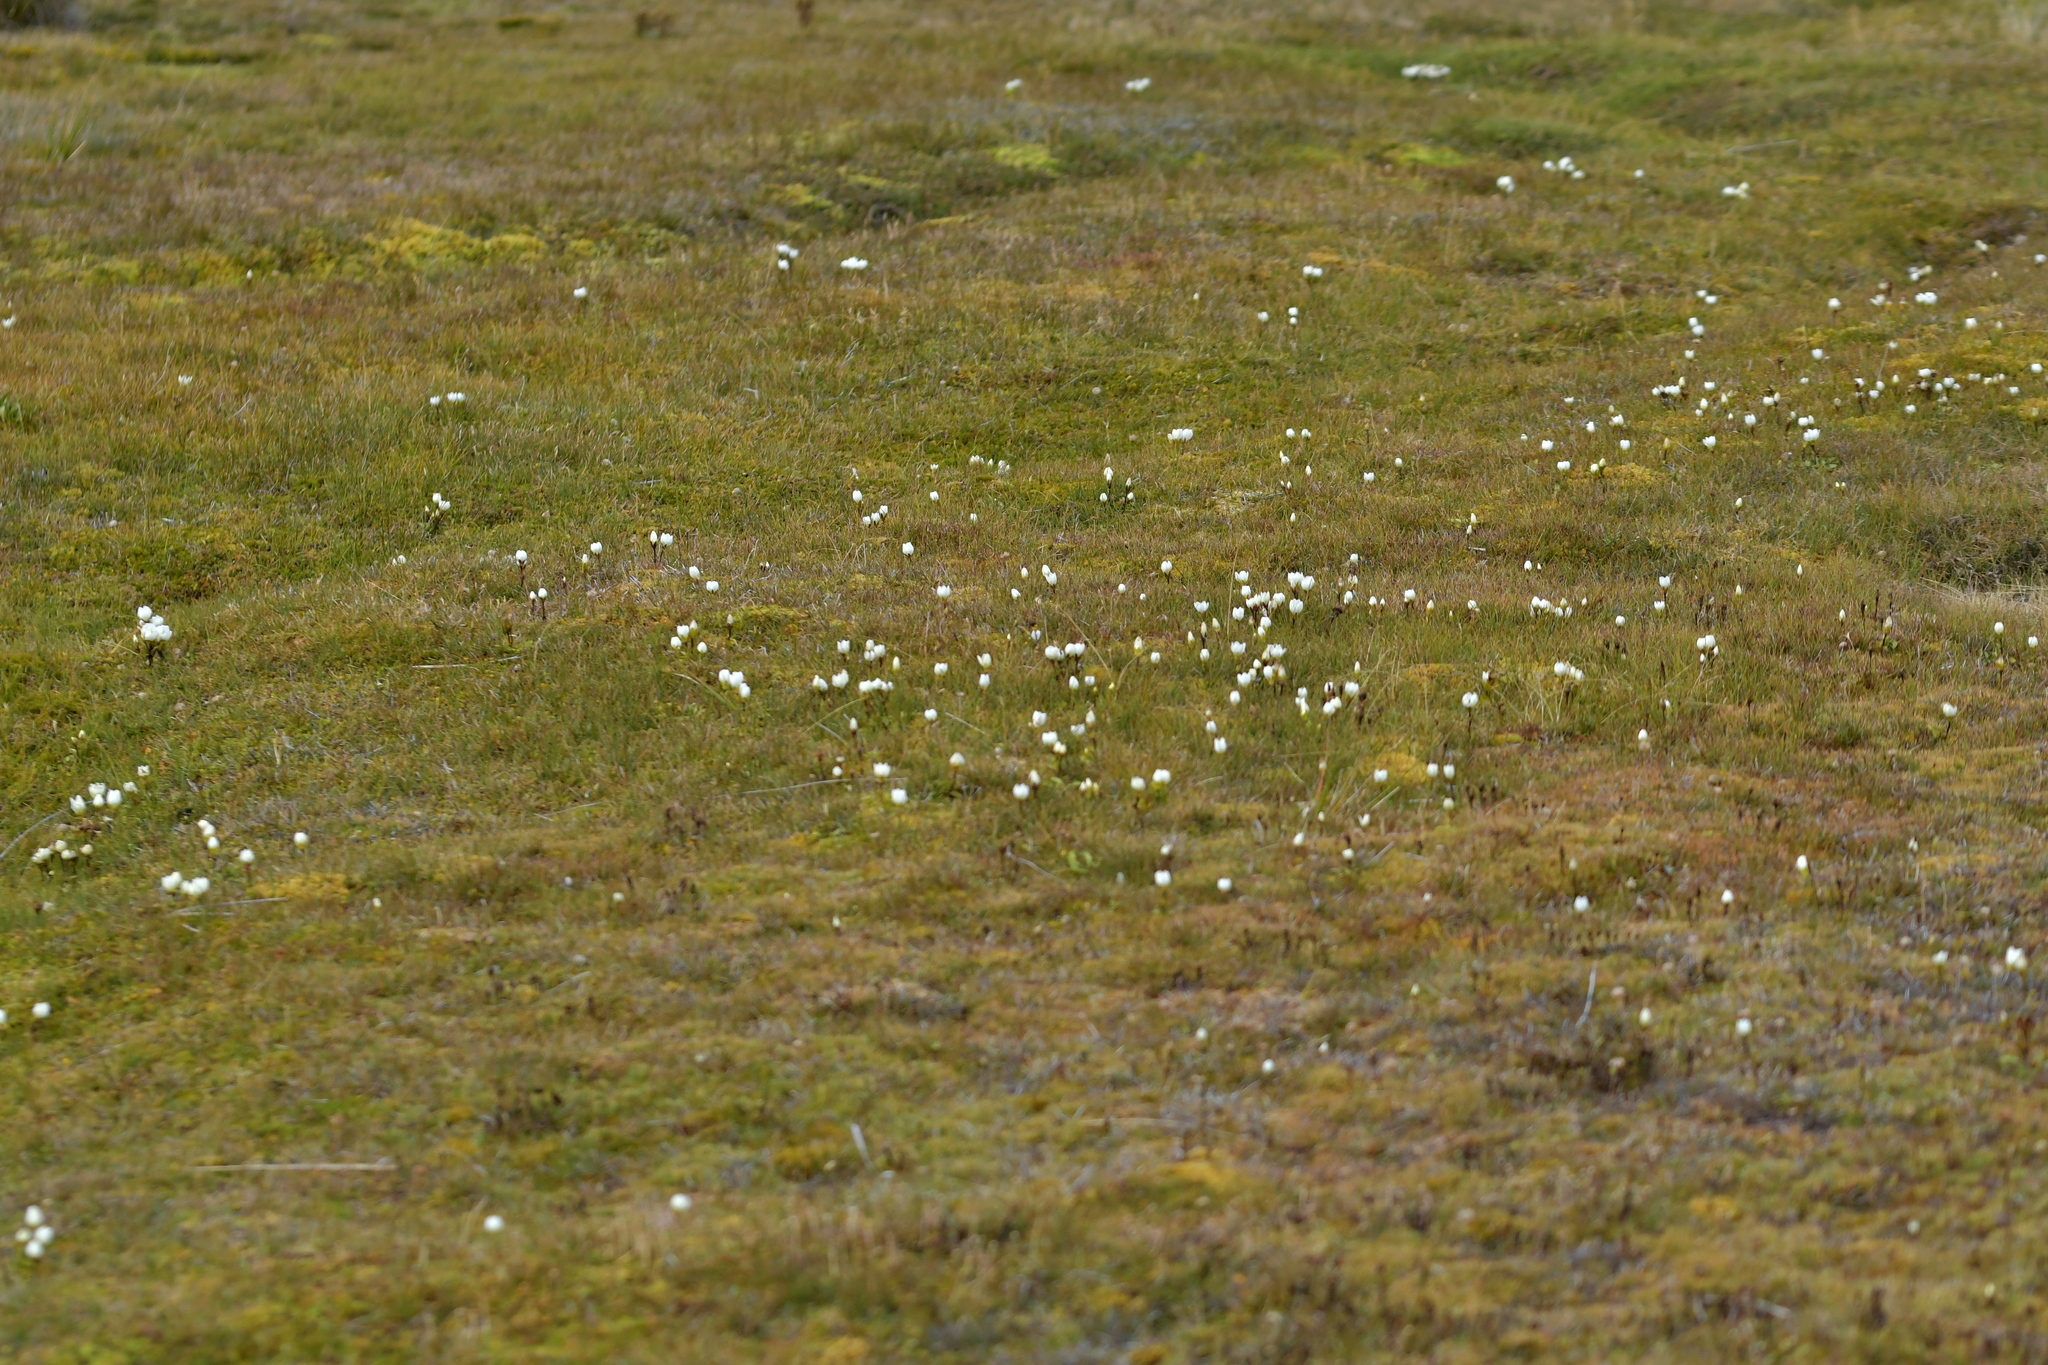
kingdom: Plantae
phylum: Tracheophyta
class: Magnoliopsida
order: Gentianales
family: Gentianaceae
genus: Gentianella
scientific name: Gentianella amabilis
